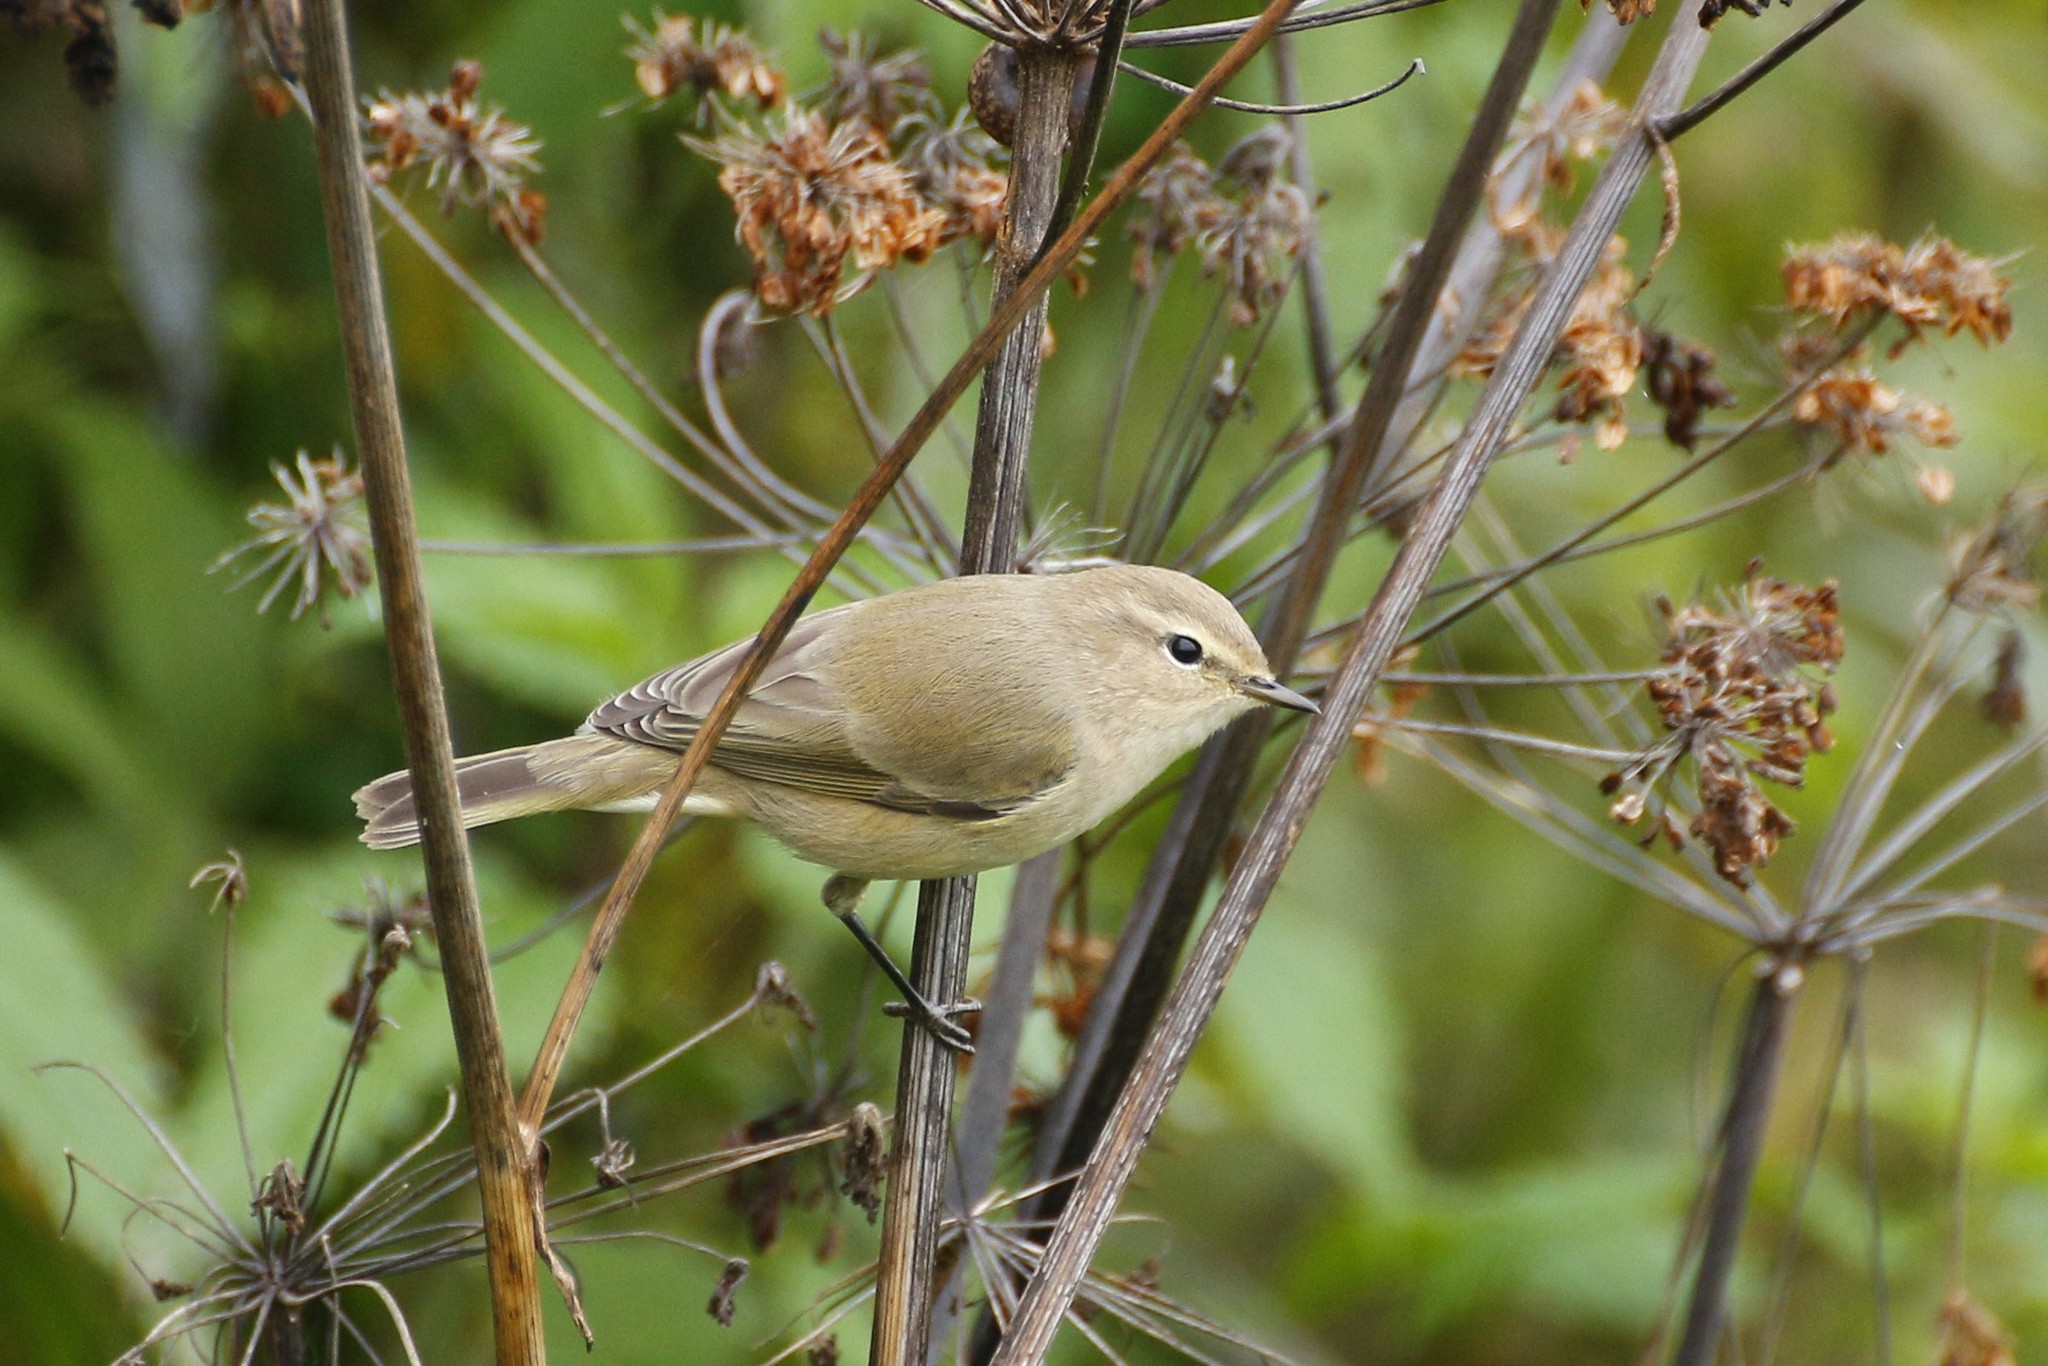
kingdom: Animalia
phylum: Chordata
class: Aves
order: Passeriformes
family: Phylloscopidae
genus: Phylloscopus
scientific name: Phylloscopus collybita
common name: Common chiffchaff
